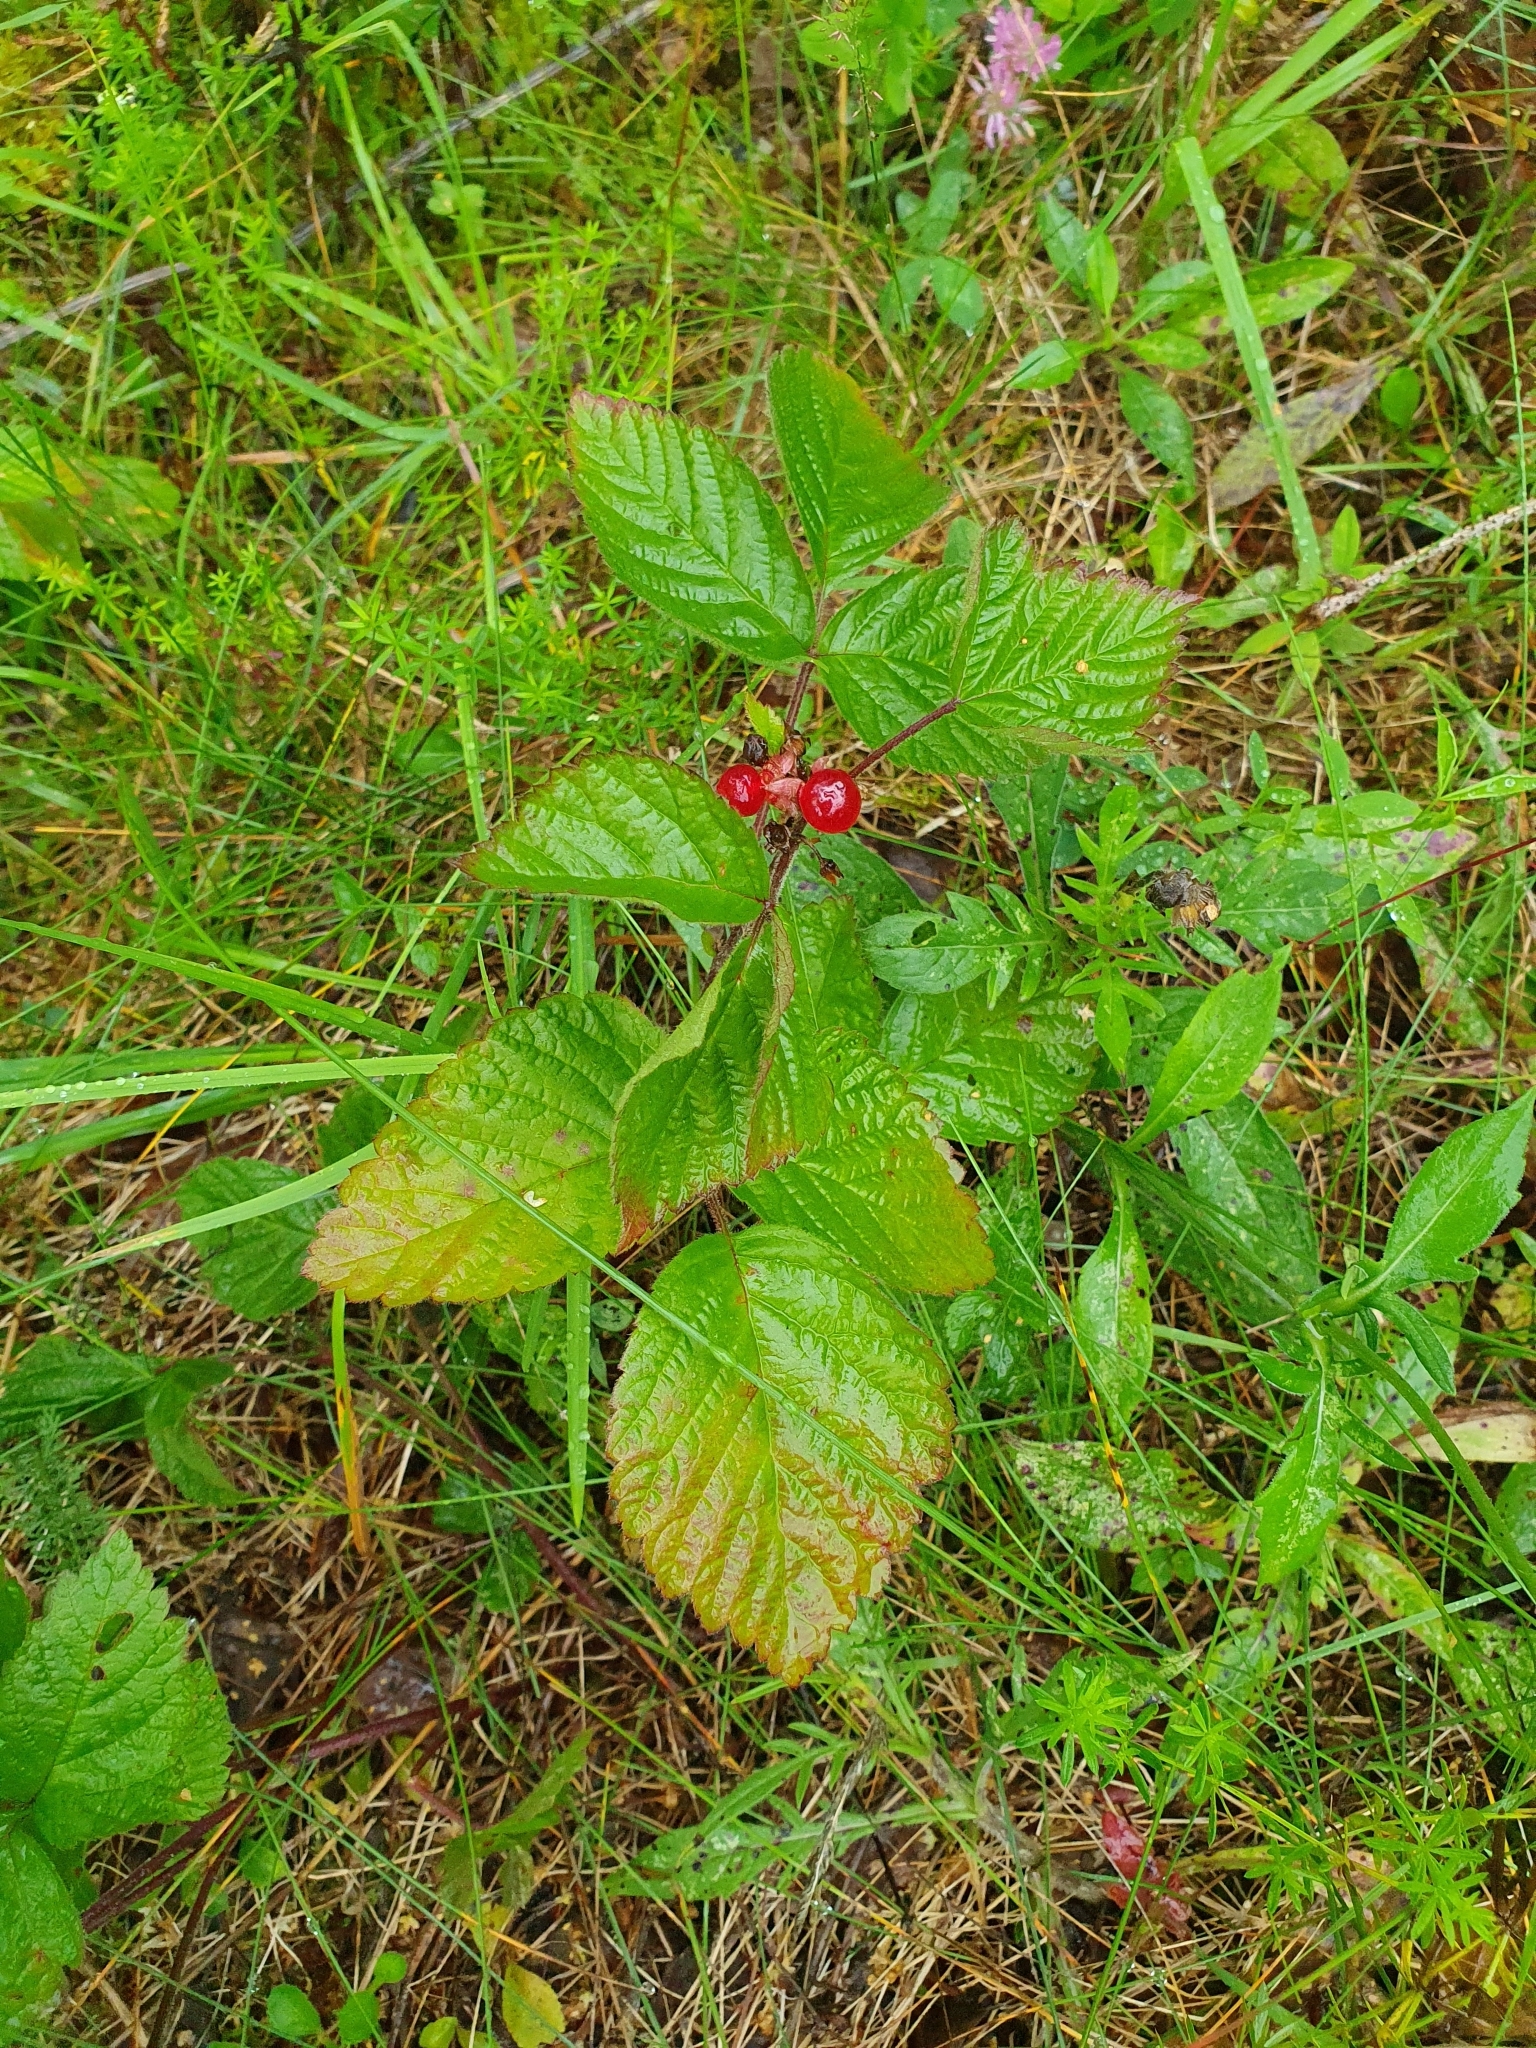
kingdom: Plantae
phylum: Tracheophyta
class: Magnoliopsida
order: Rosales
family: Rosaceae
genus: Rubus
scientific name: Rubus saxatilis
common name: Stone bramble
